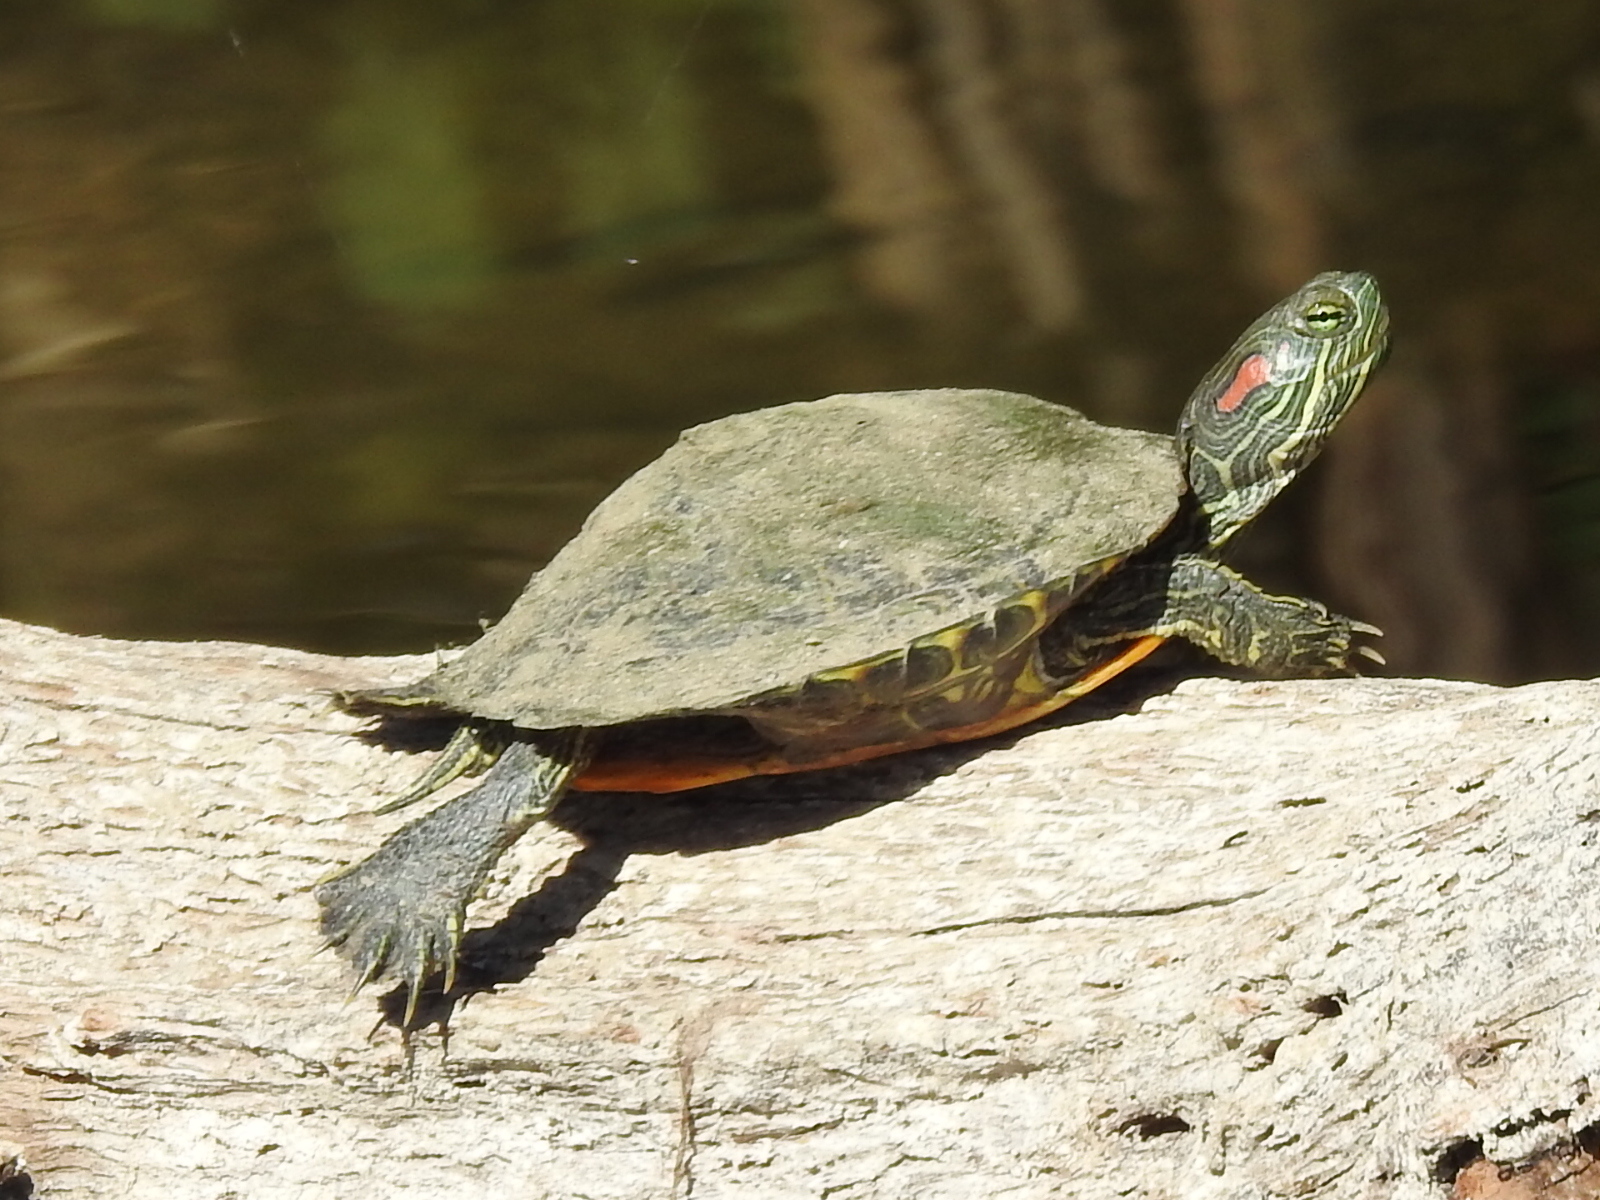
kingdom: Animalia
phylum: Chordata
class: Testudines
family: Emydidae
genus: Trachemys
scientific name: Trachemys scripta
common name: Slider
